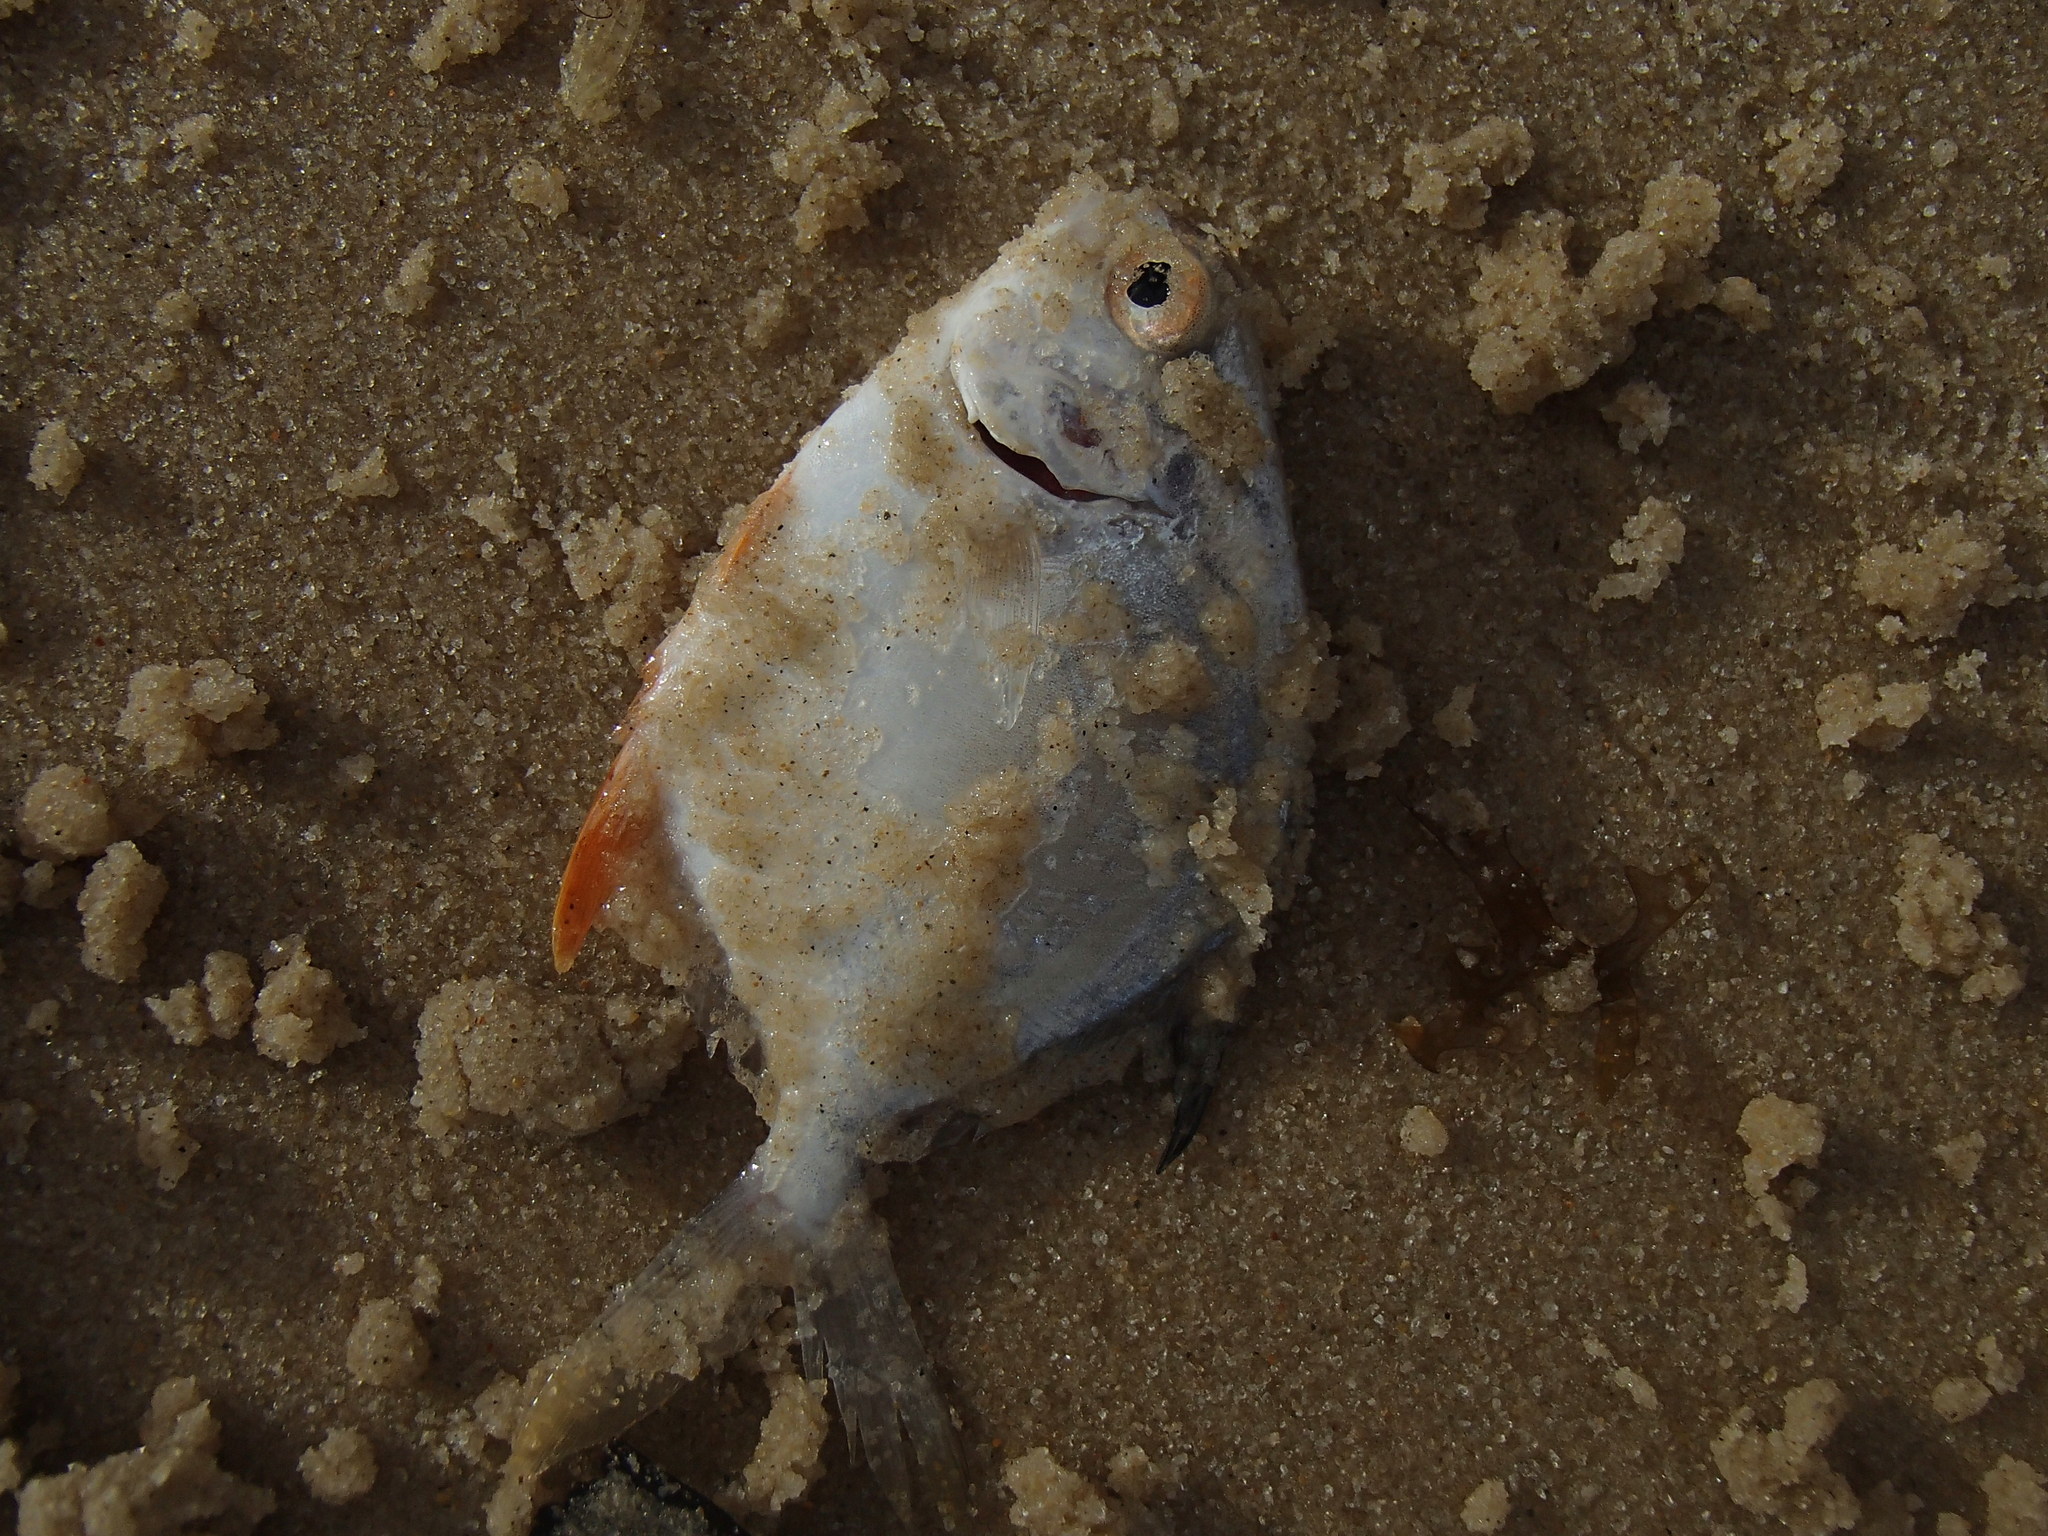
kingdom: Animalia
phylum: Chordata
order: Perciformes
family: Carangidae
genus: Trachinotus
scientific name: Trachinotus carolinus
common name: Florida pompano
